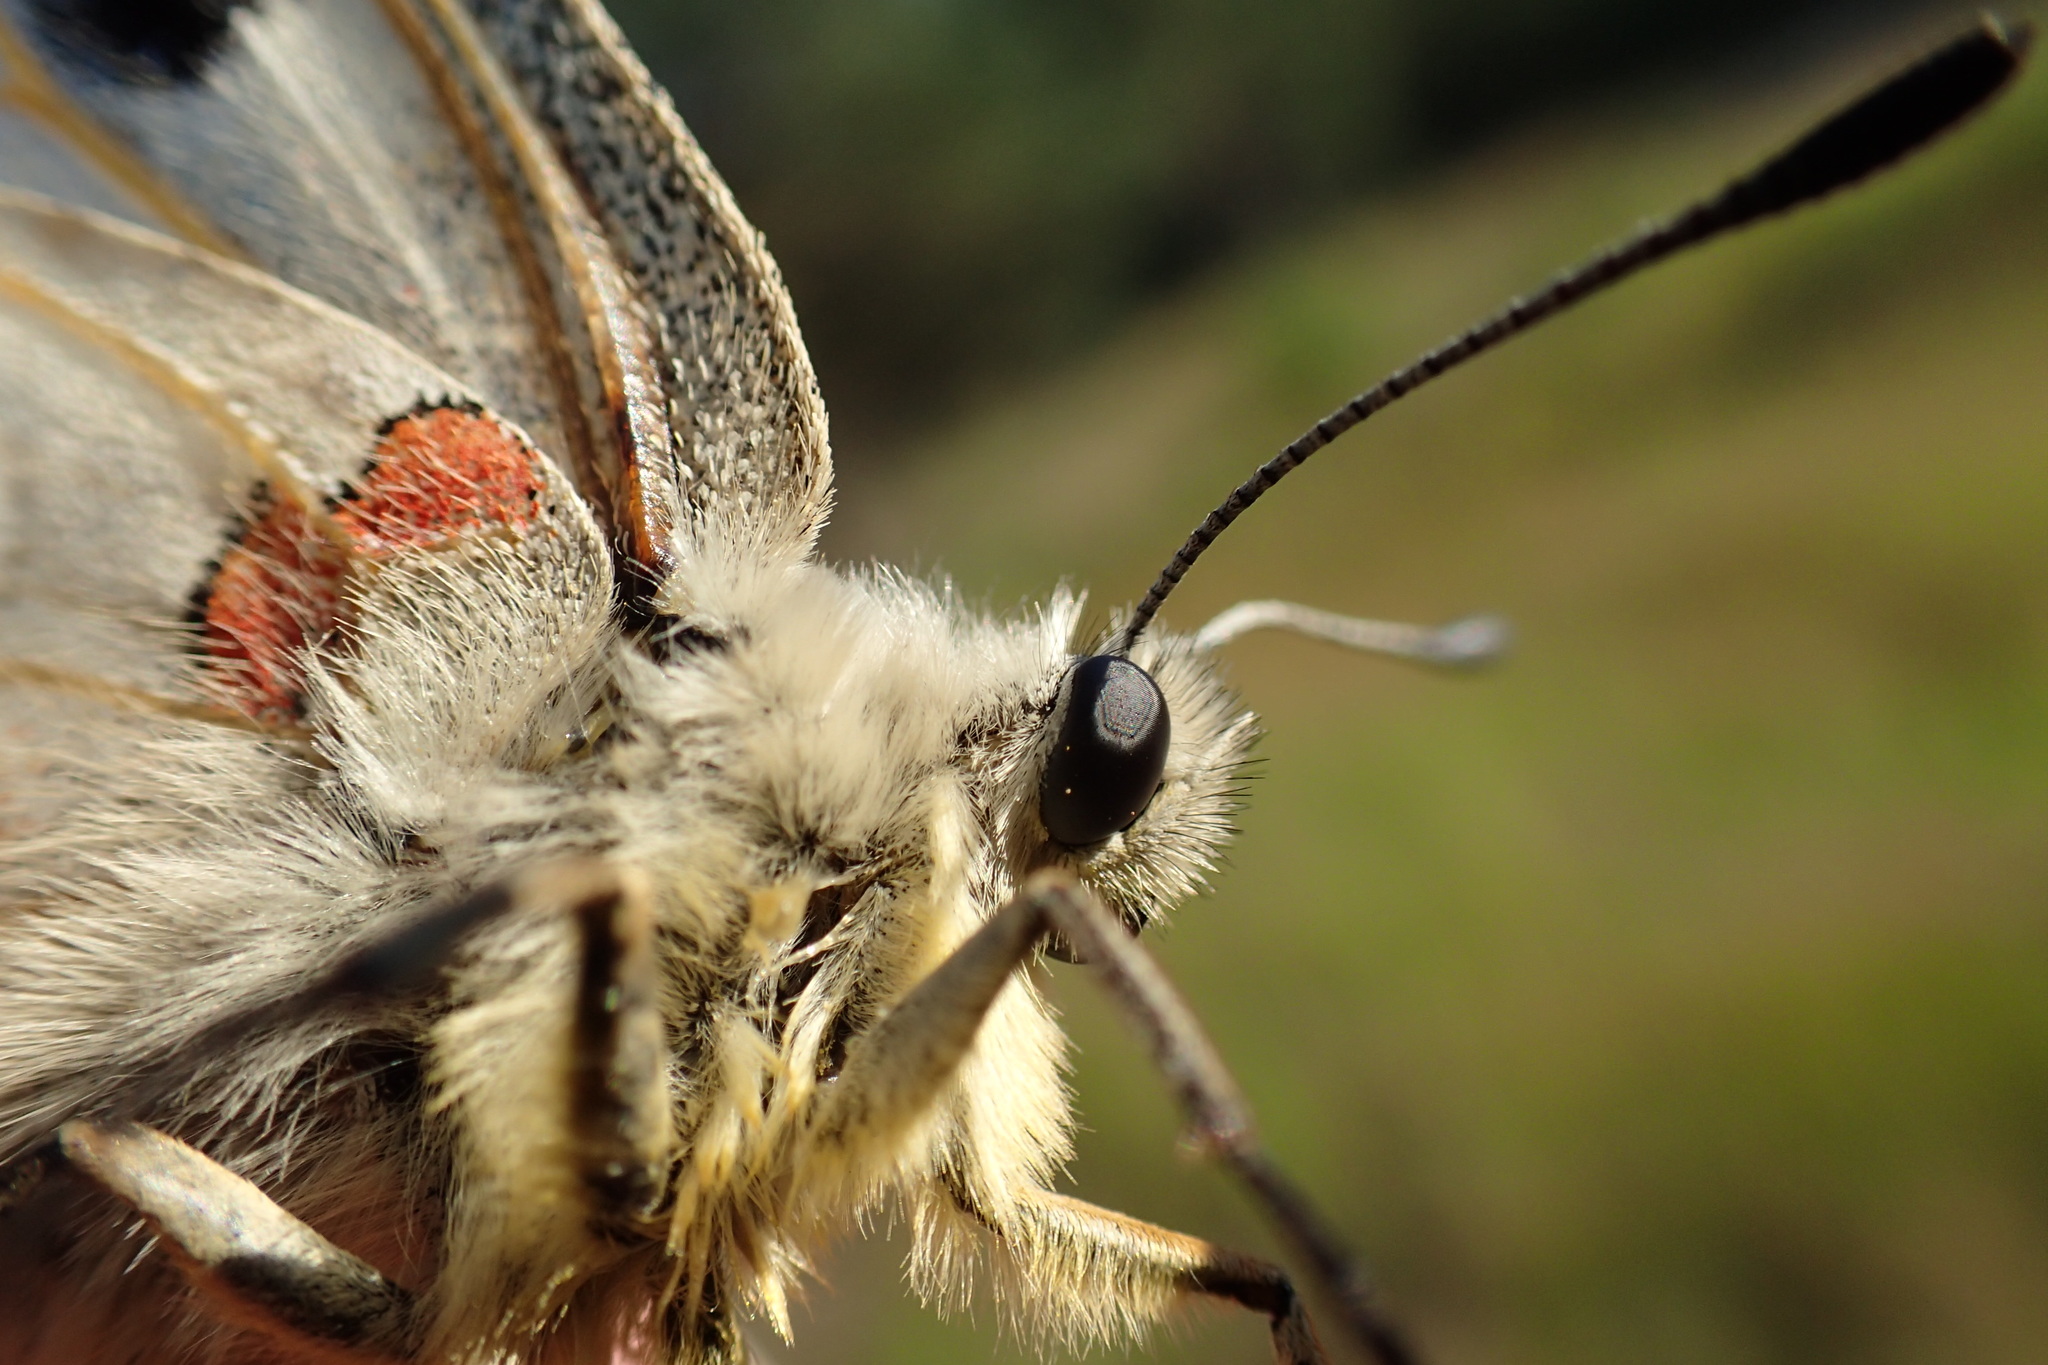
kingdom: Animalia
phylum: Arthropoda
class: Insecta
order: Lepidoptera
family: Papilionidae
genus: Parnassius
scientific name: Parnassius apollo
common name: Apollo
